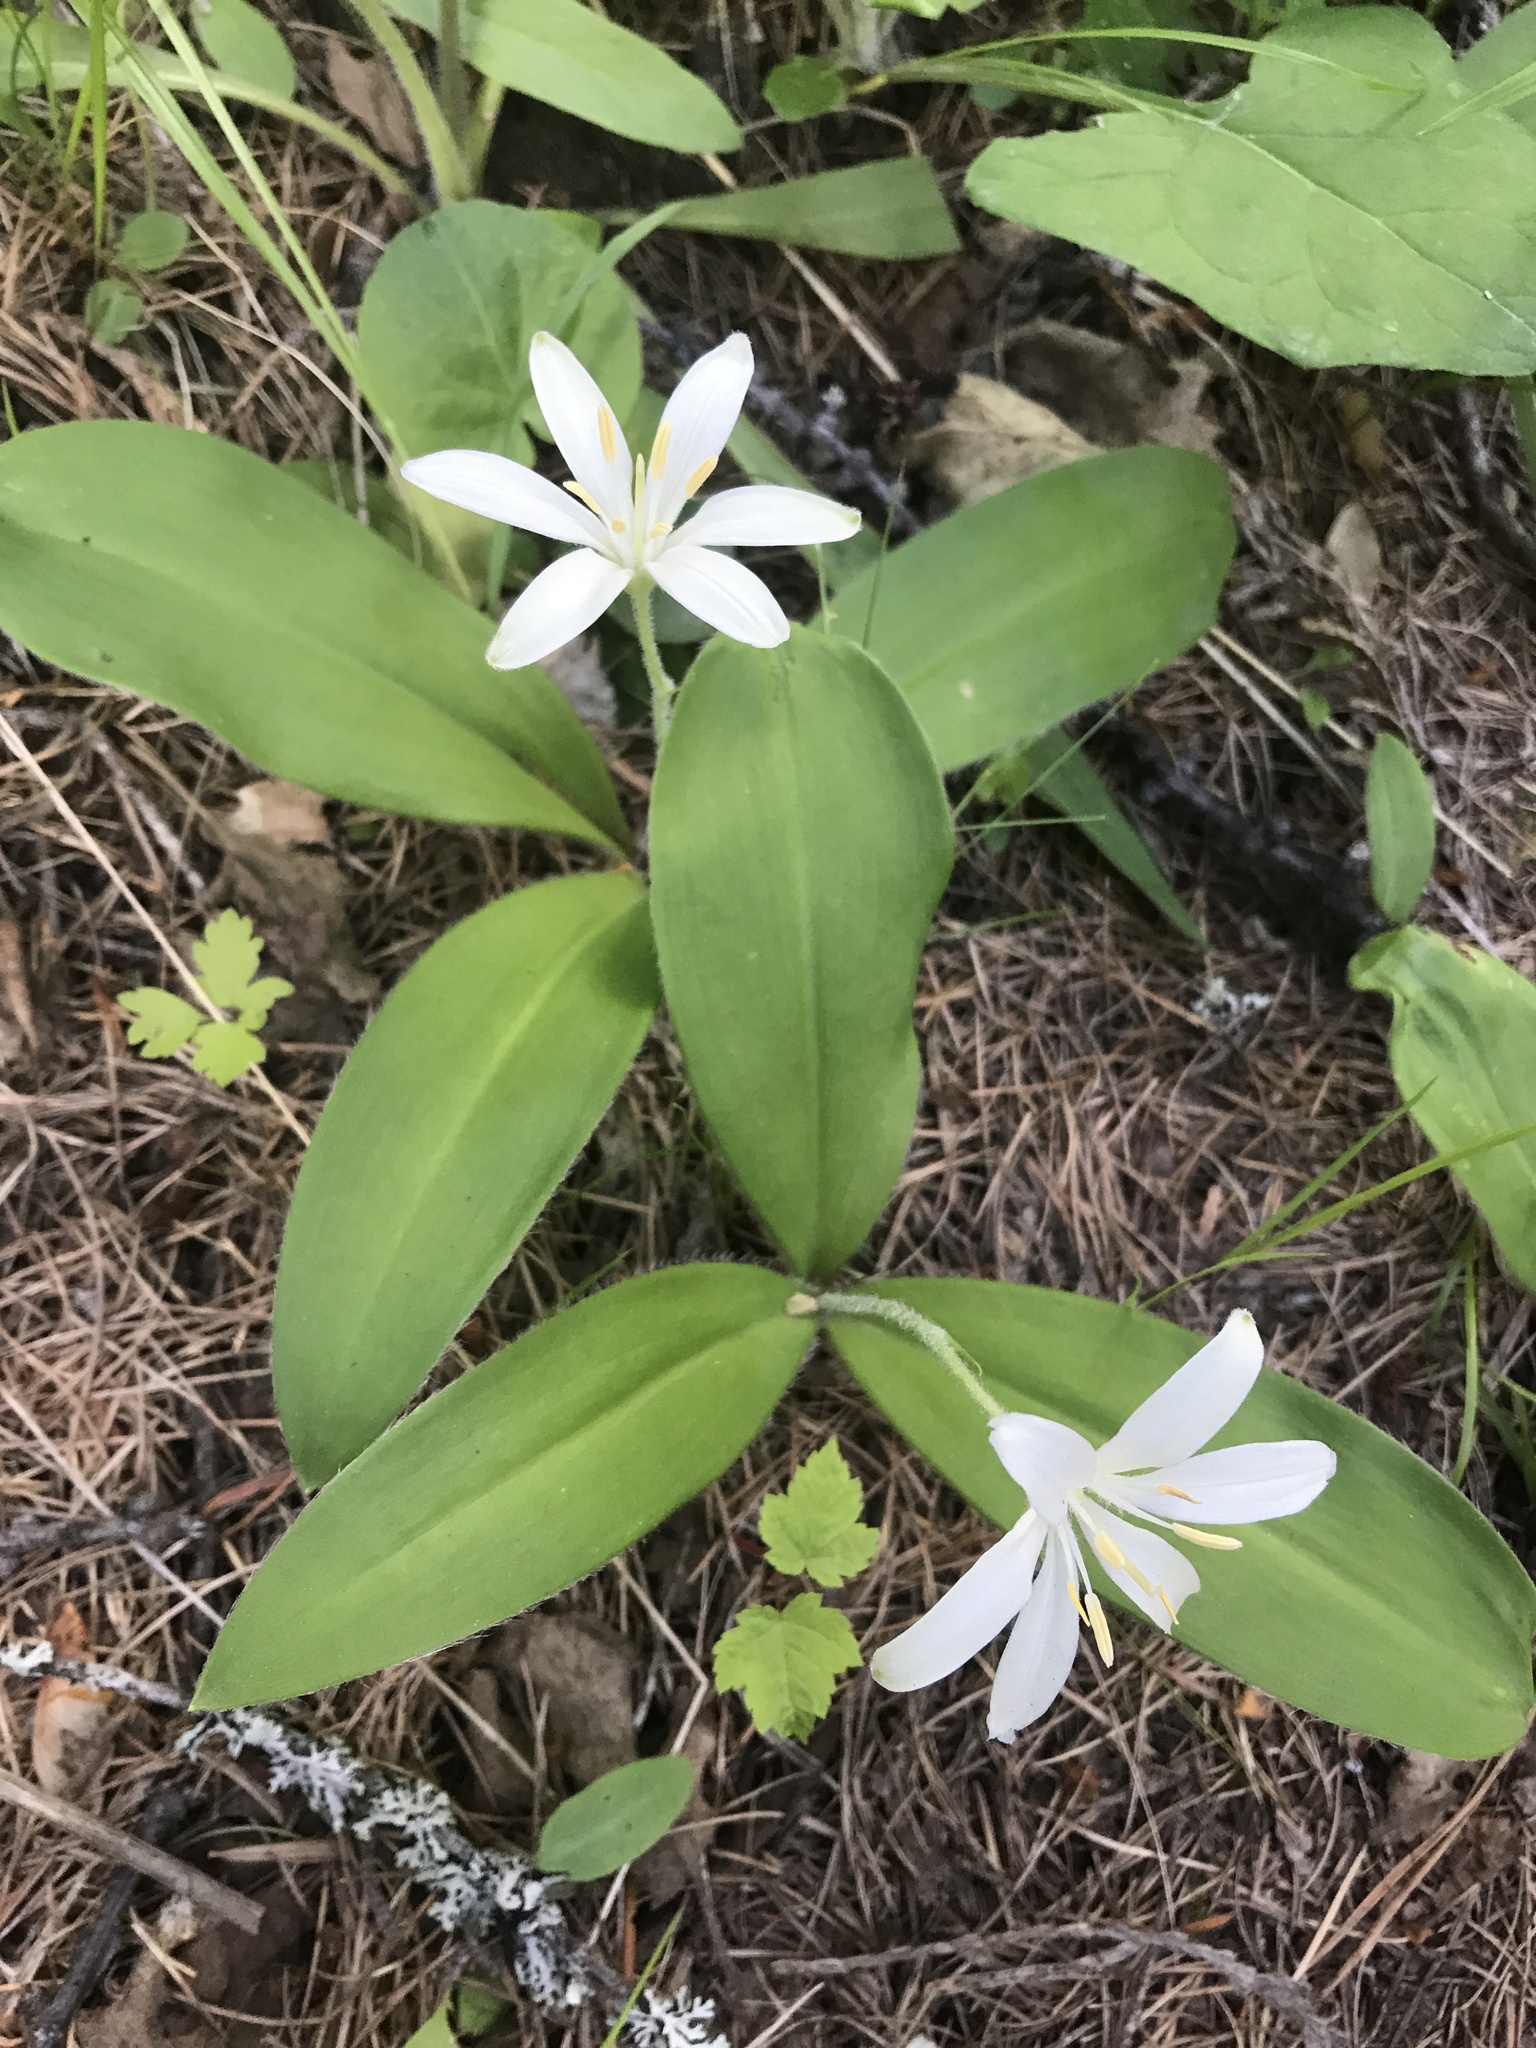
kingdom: Plantae
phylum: Tracheophyta
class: Liliopsida
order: Liliales
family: Liliaceae
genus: Clintonia
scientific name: Clintonia uniflora
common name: Queen's cup
